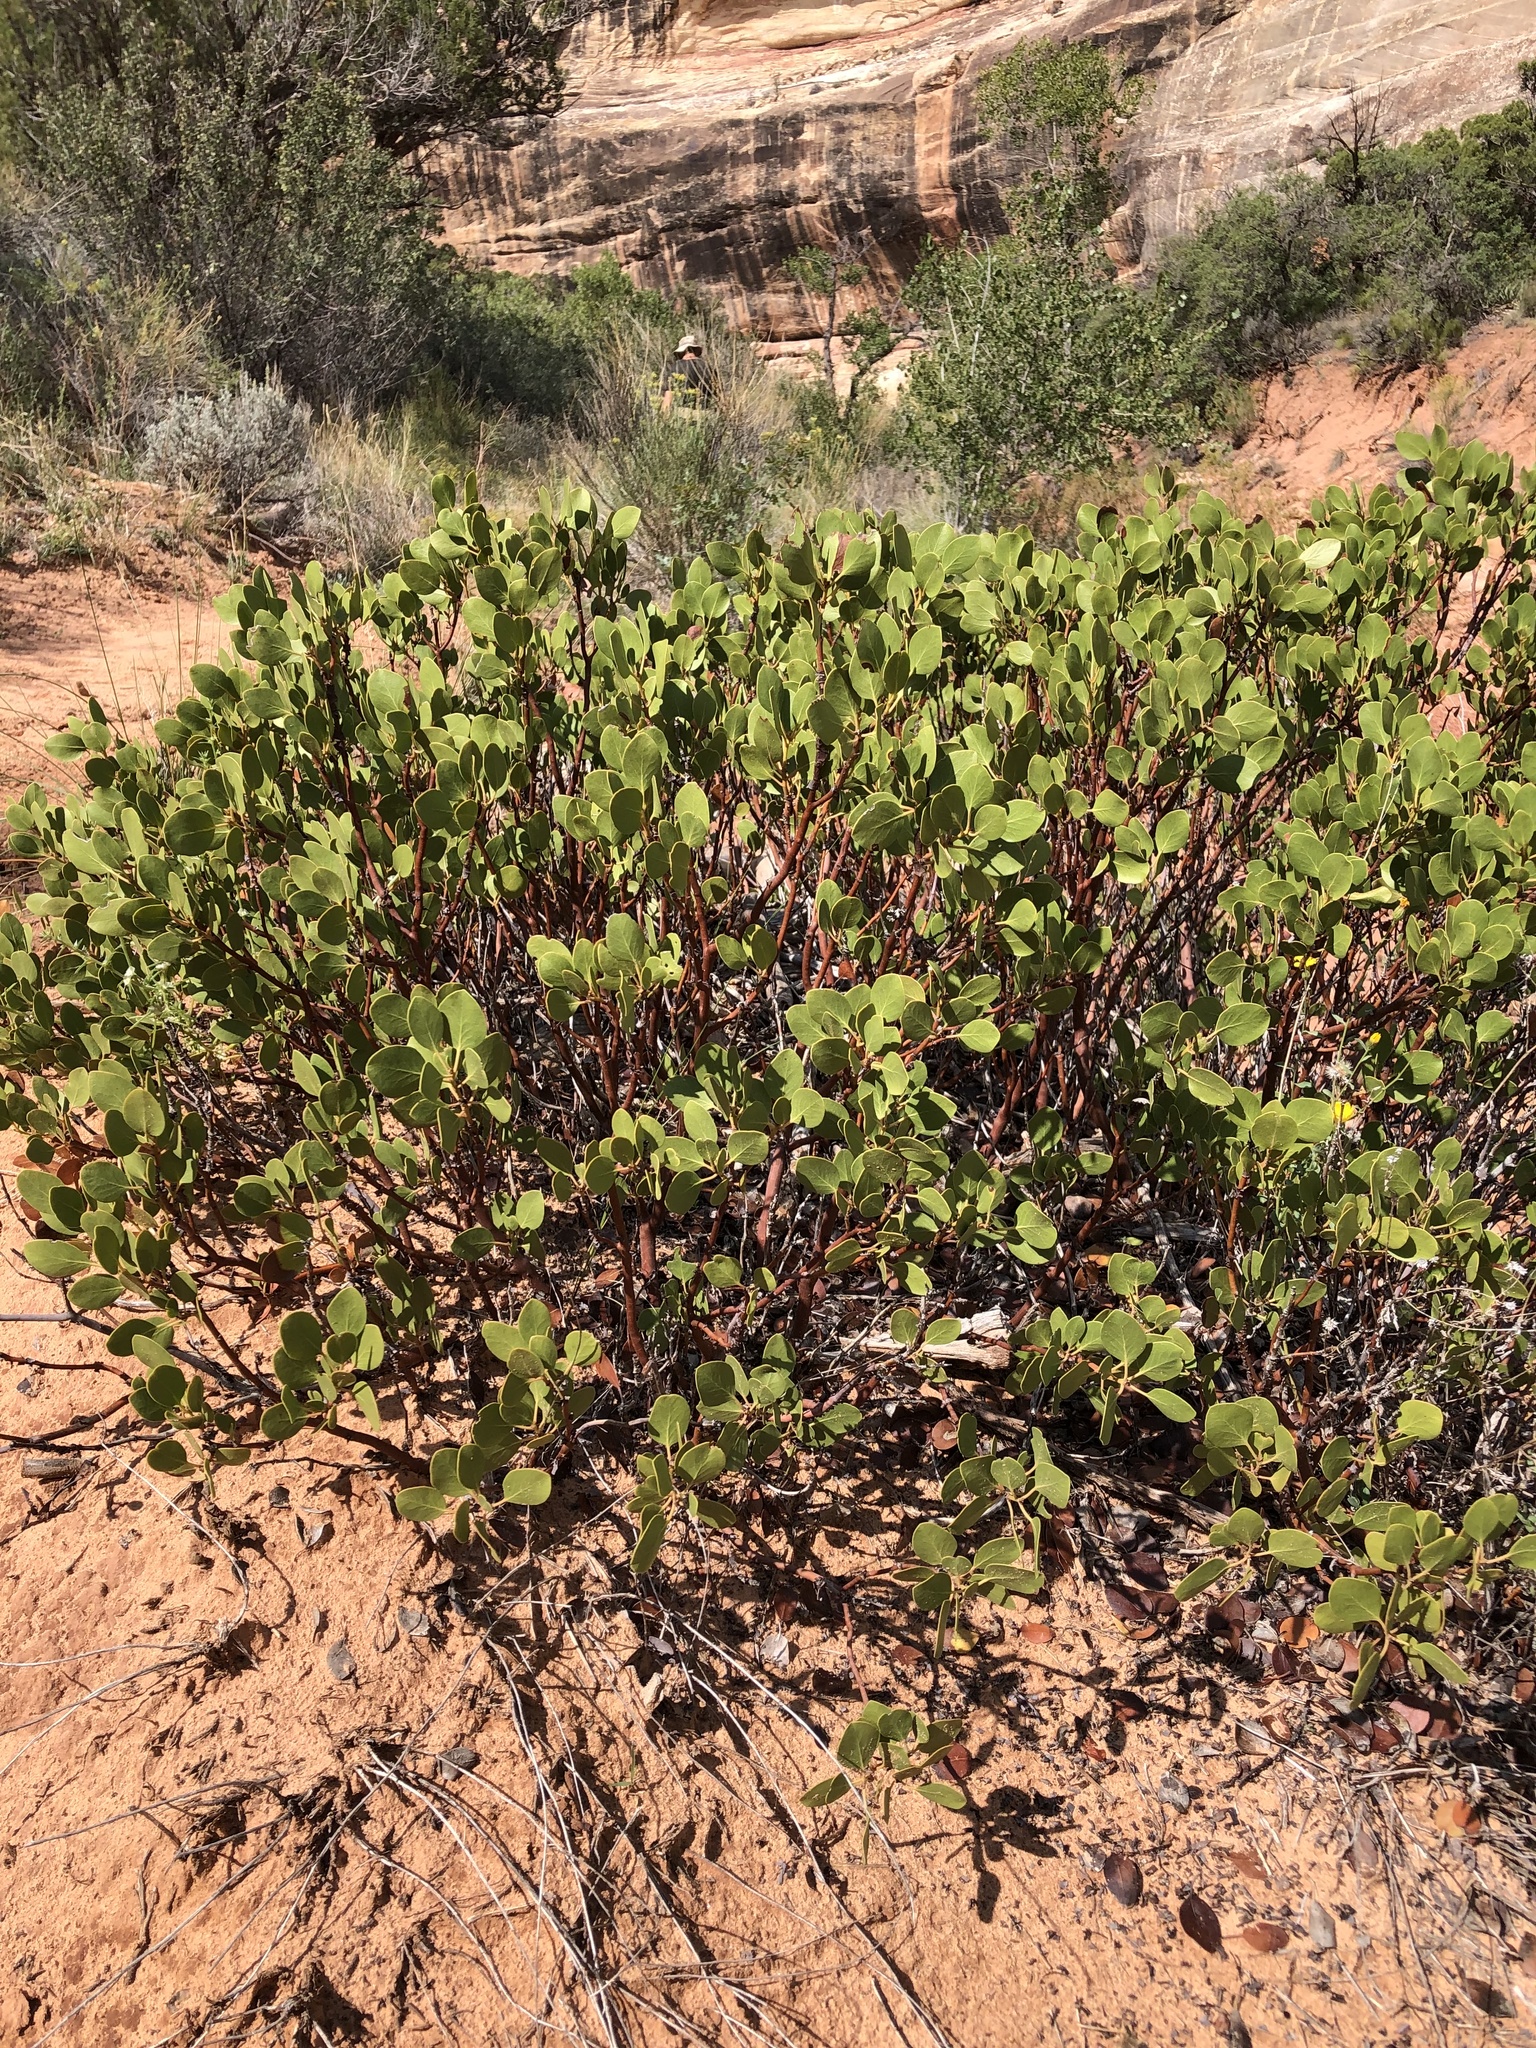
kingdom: Plantae
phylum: Tracheophyta
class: Magnoliopsida
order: Ericales
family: Ericaceae
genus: Arctostaphylos
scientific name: Arctostaphylos patula
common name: Green-leaf manzanita
